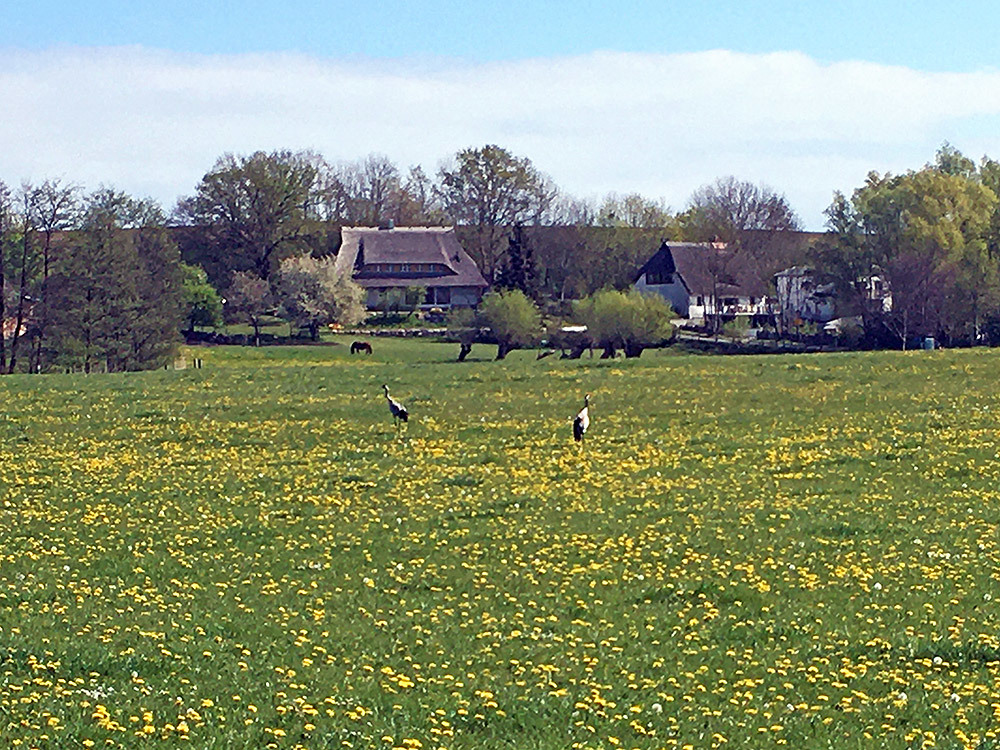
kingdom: Animalia
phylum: Chordata
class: Aves
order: Gruiformes
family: Gruidae
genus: Grus
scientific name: Grus grus
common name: Common crane
